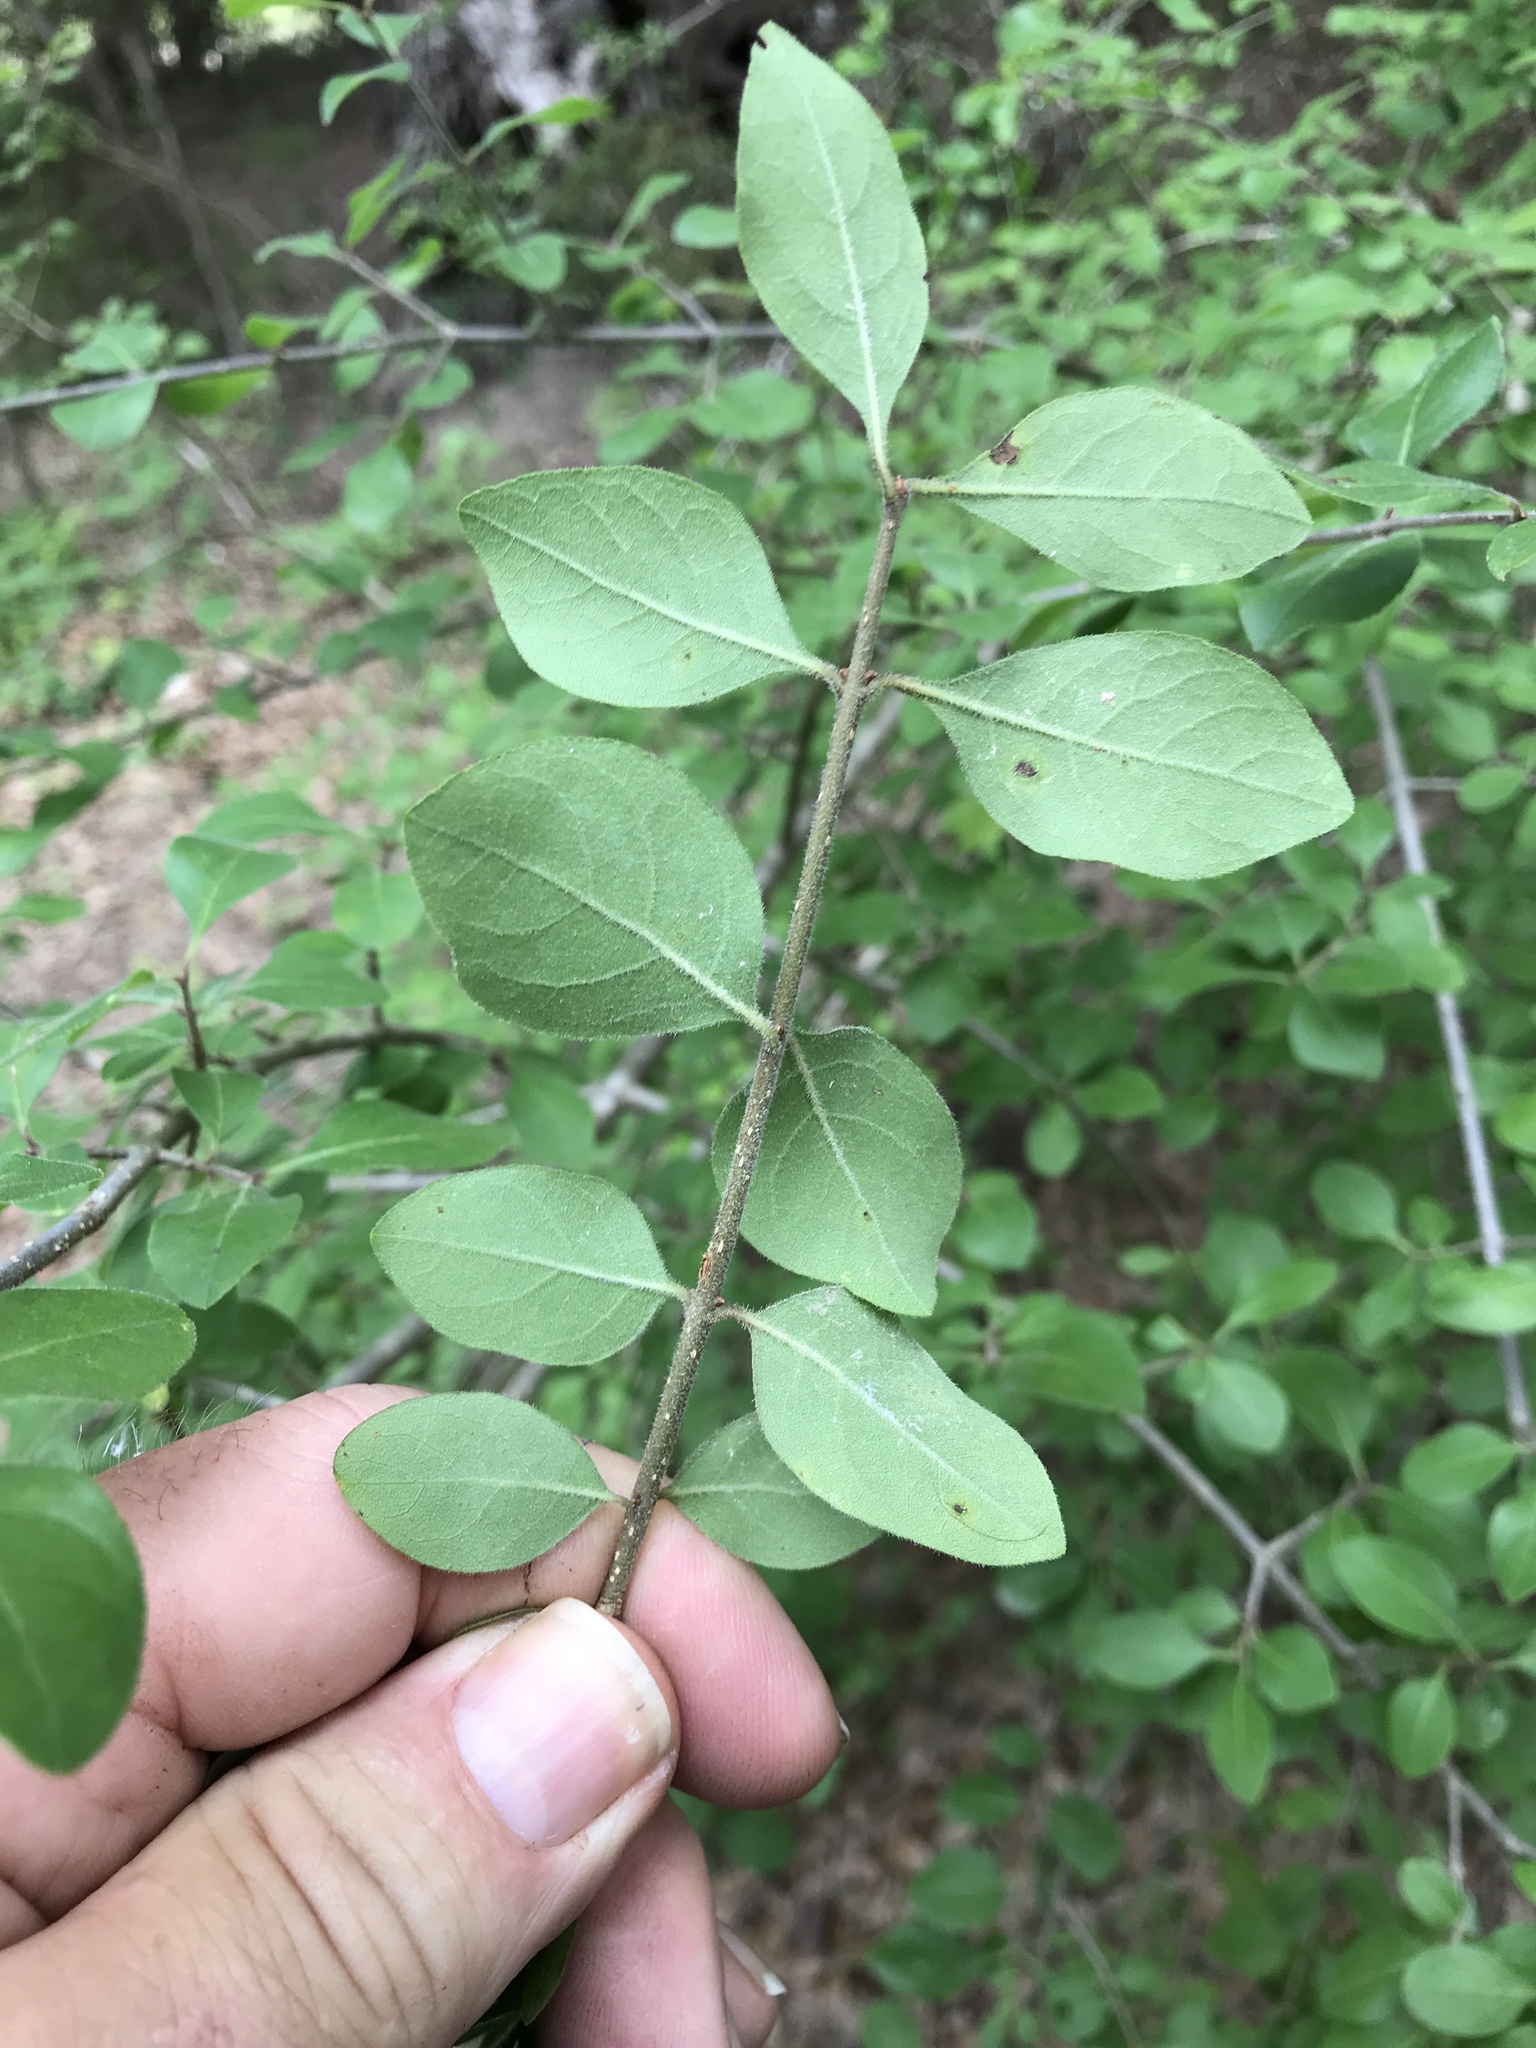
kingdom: Plantae
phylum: Tracheophyta
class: Magnoliopsida
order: Lamiales
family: Oleaceae
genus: Forestiera
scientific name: Forestiera pubescens
